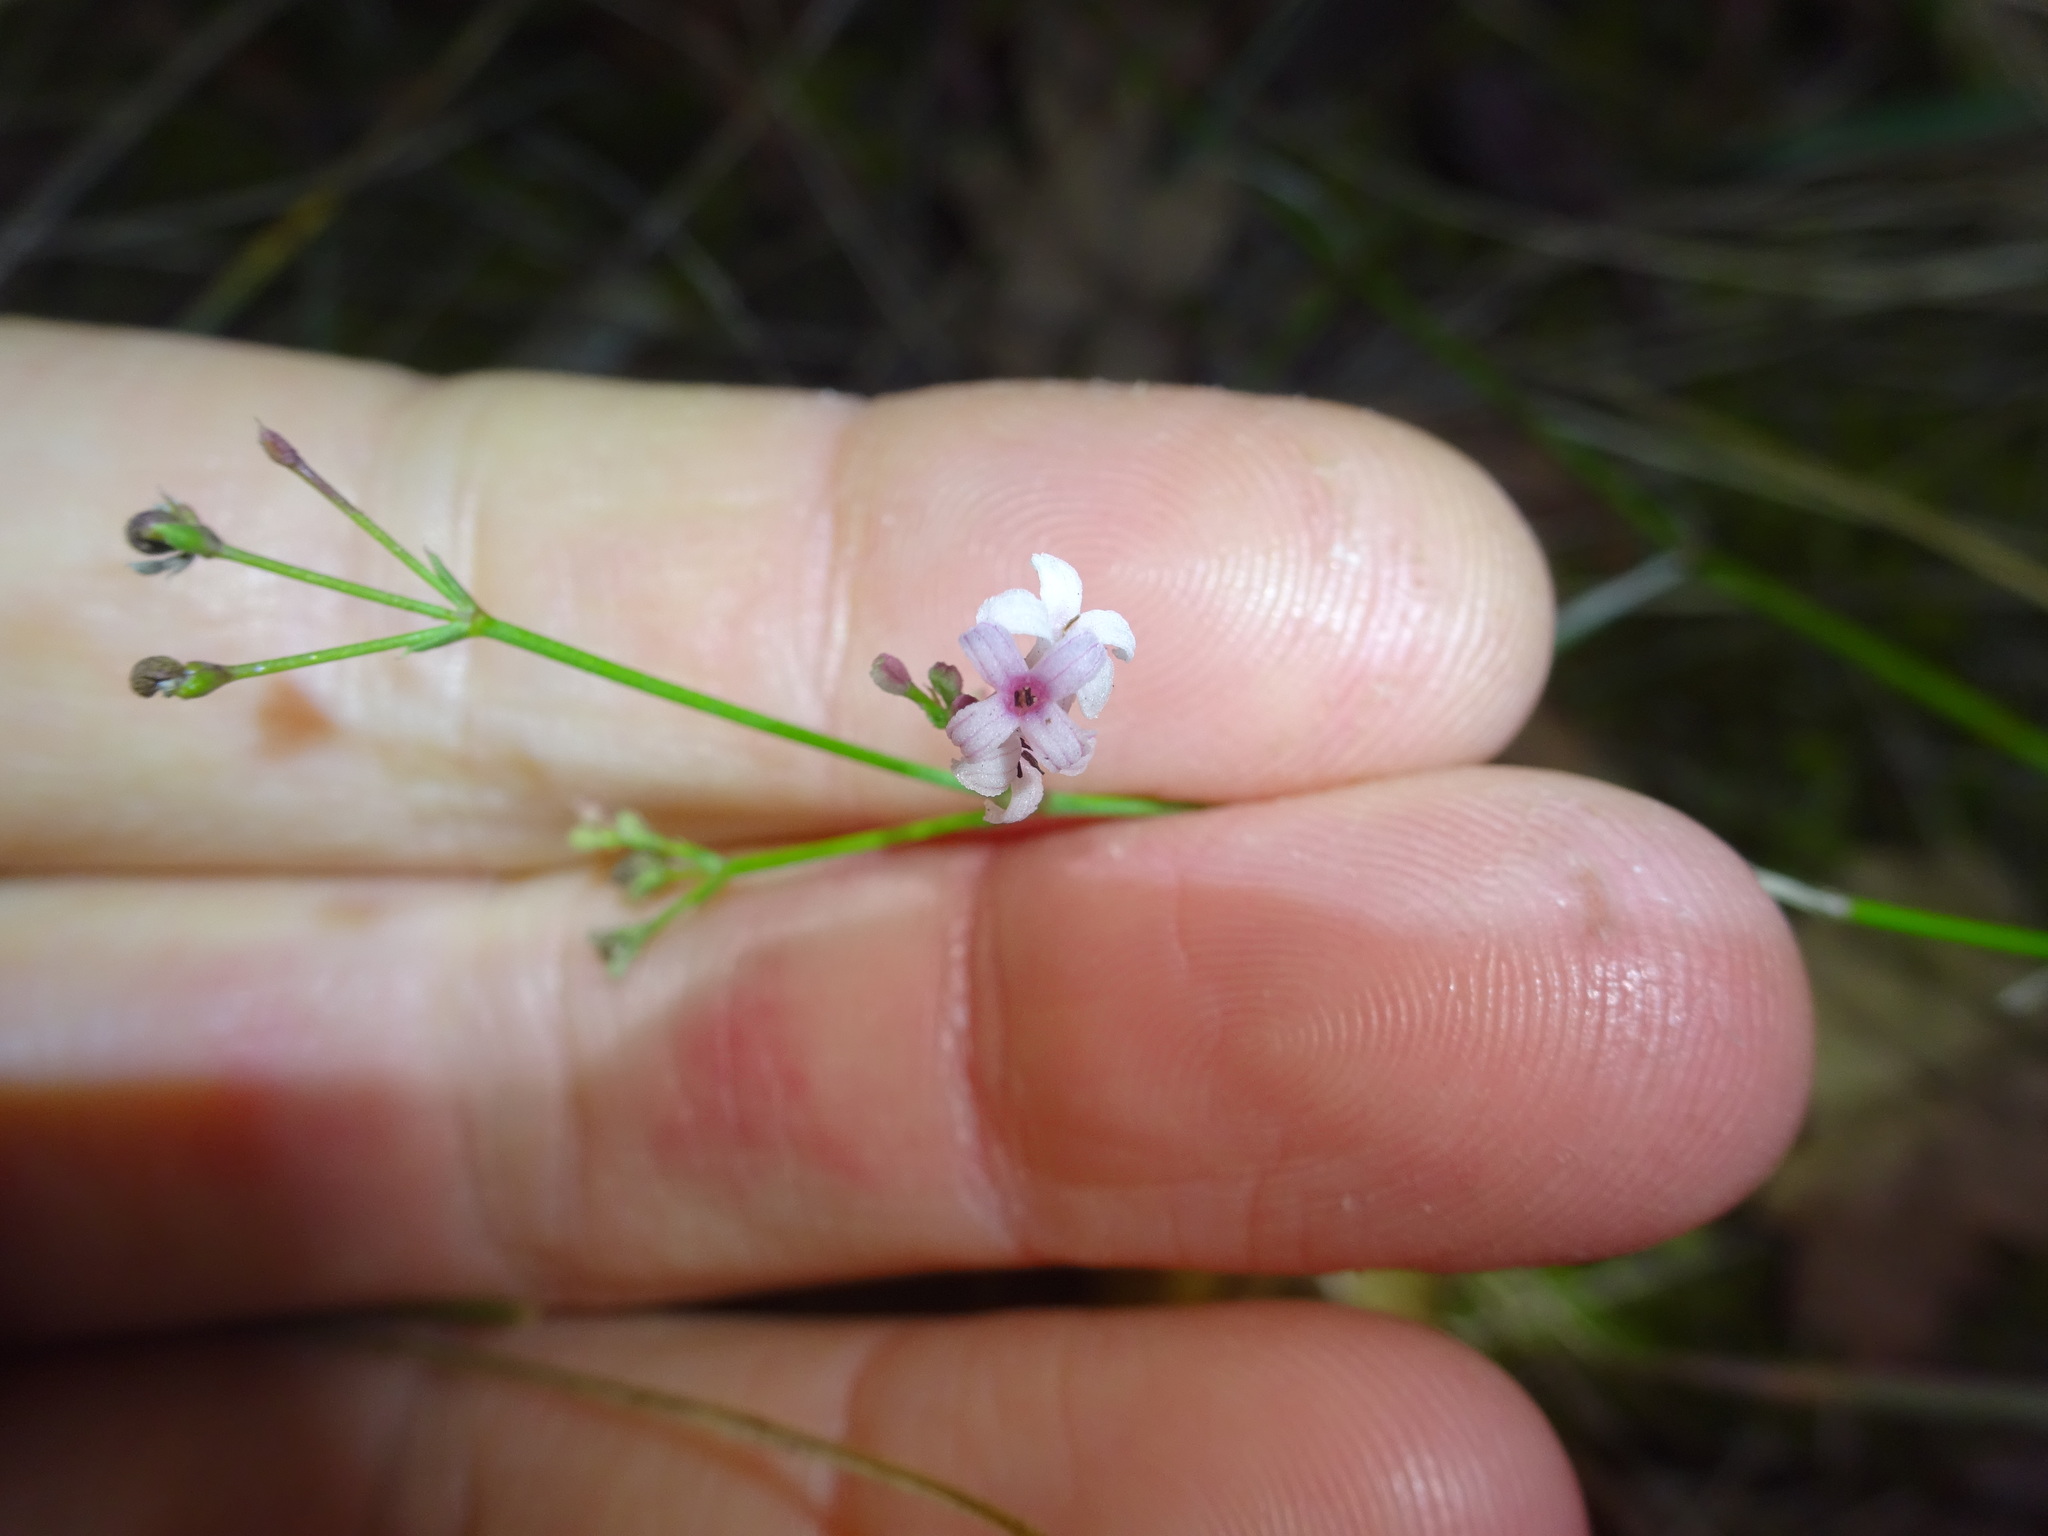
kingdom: Plantae
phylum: Tracheophyta
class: Magnoliopsida
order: Gentianales
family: Rubiaceae
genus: Cynanchica
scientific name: Cynanchica pyrenaica
